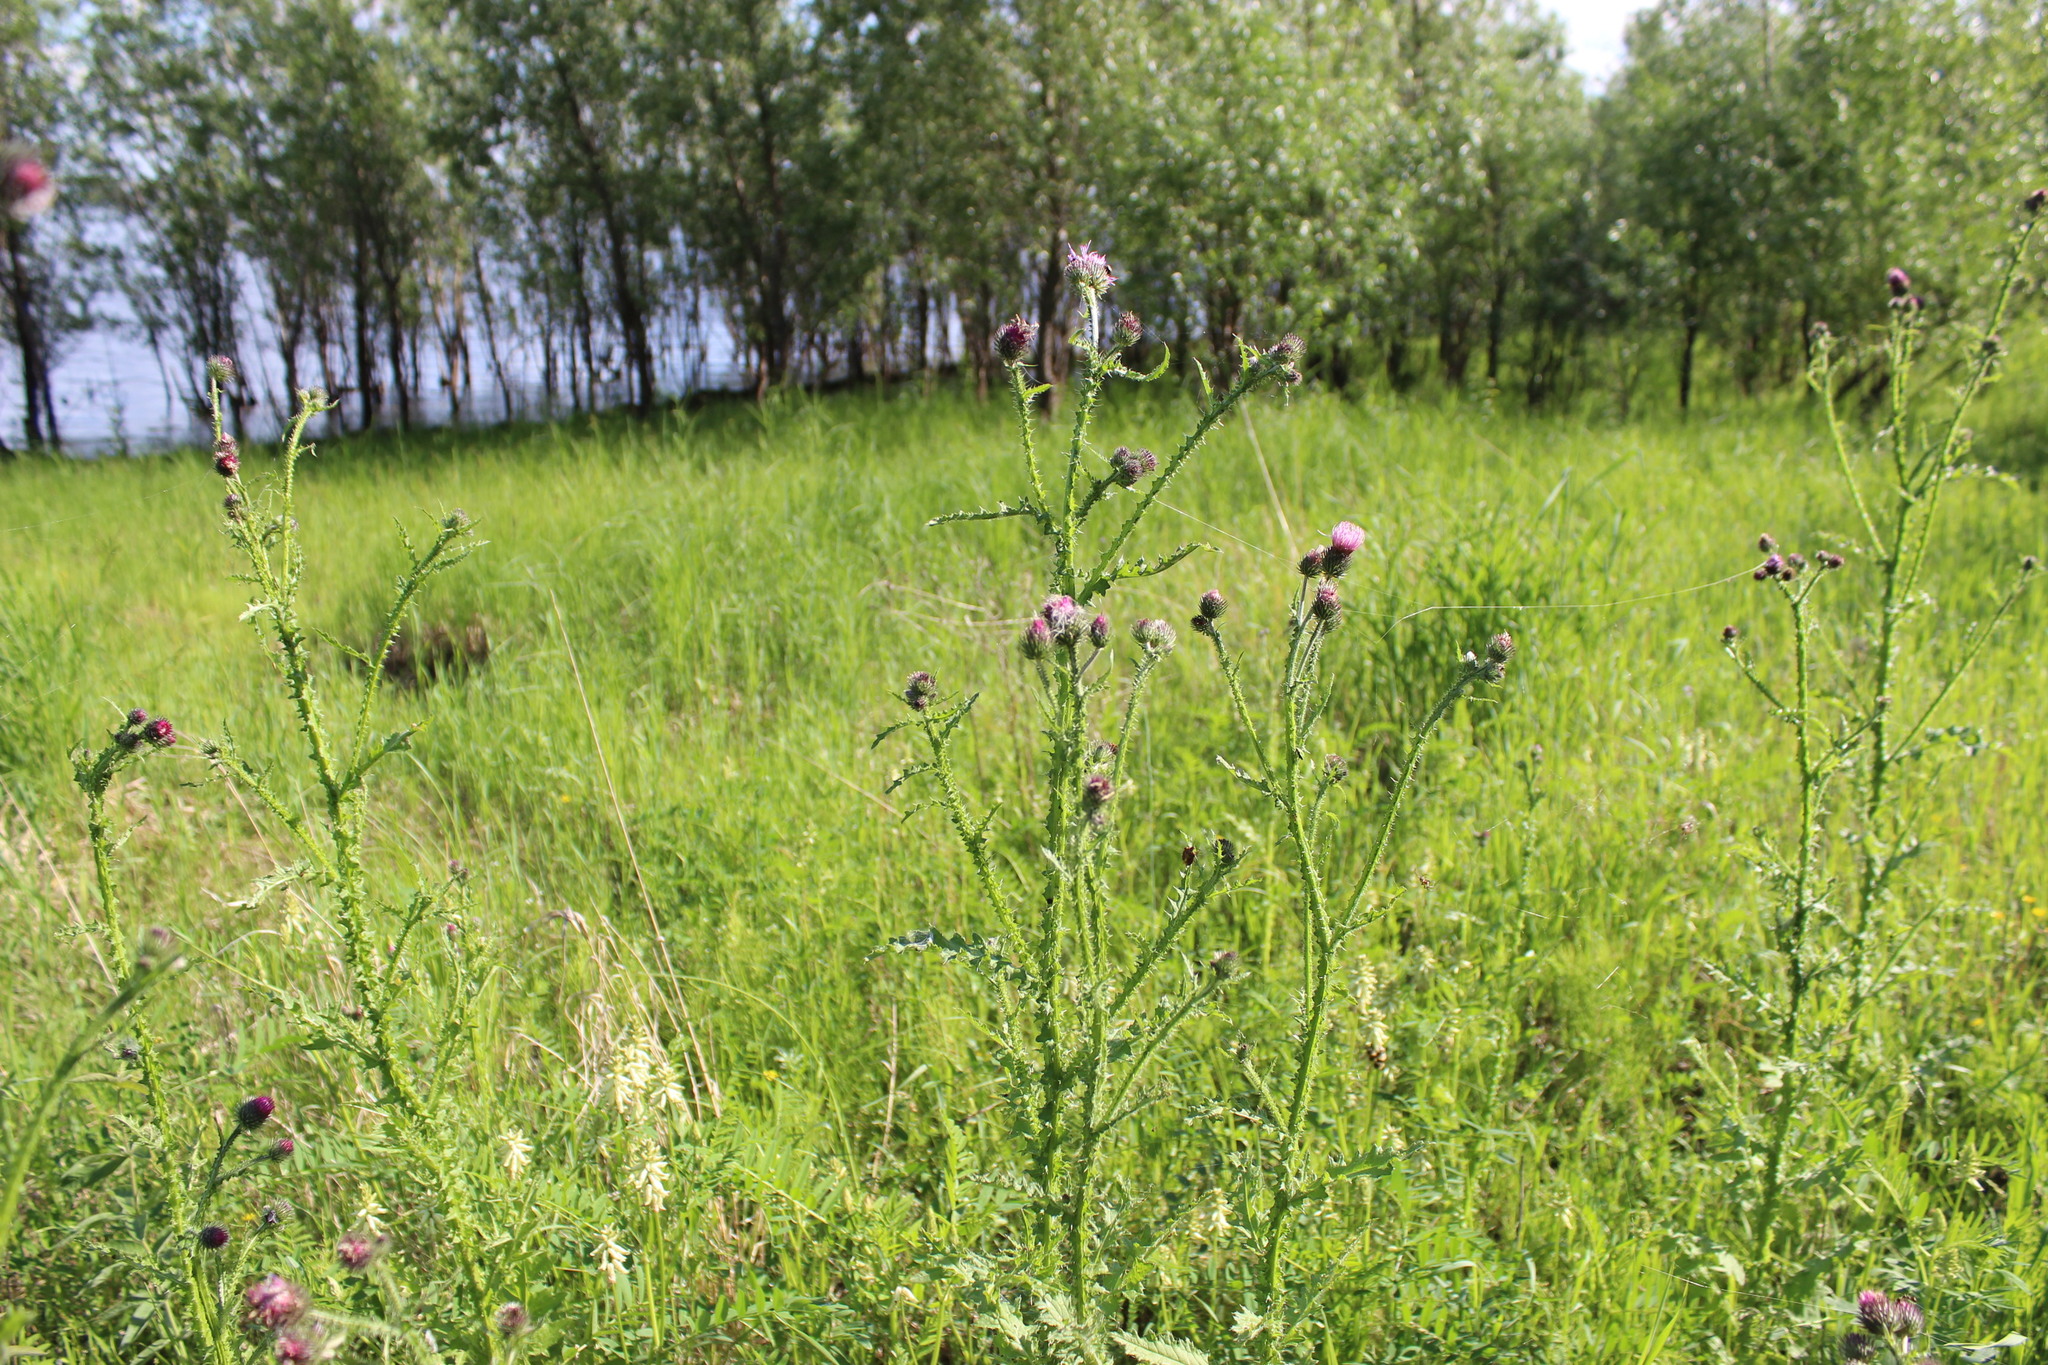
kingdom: Plantae
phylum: Tracheophyta
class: Magnoliopsida
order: Asterales
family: Asteraceae
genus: Carduus
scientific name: Carduus crispus
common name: Welted thistle
